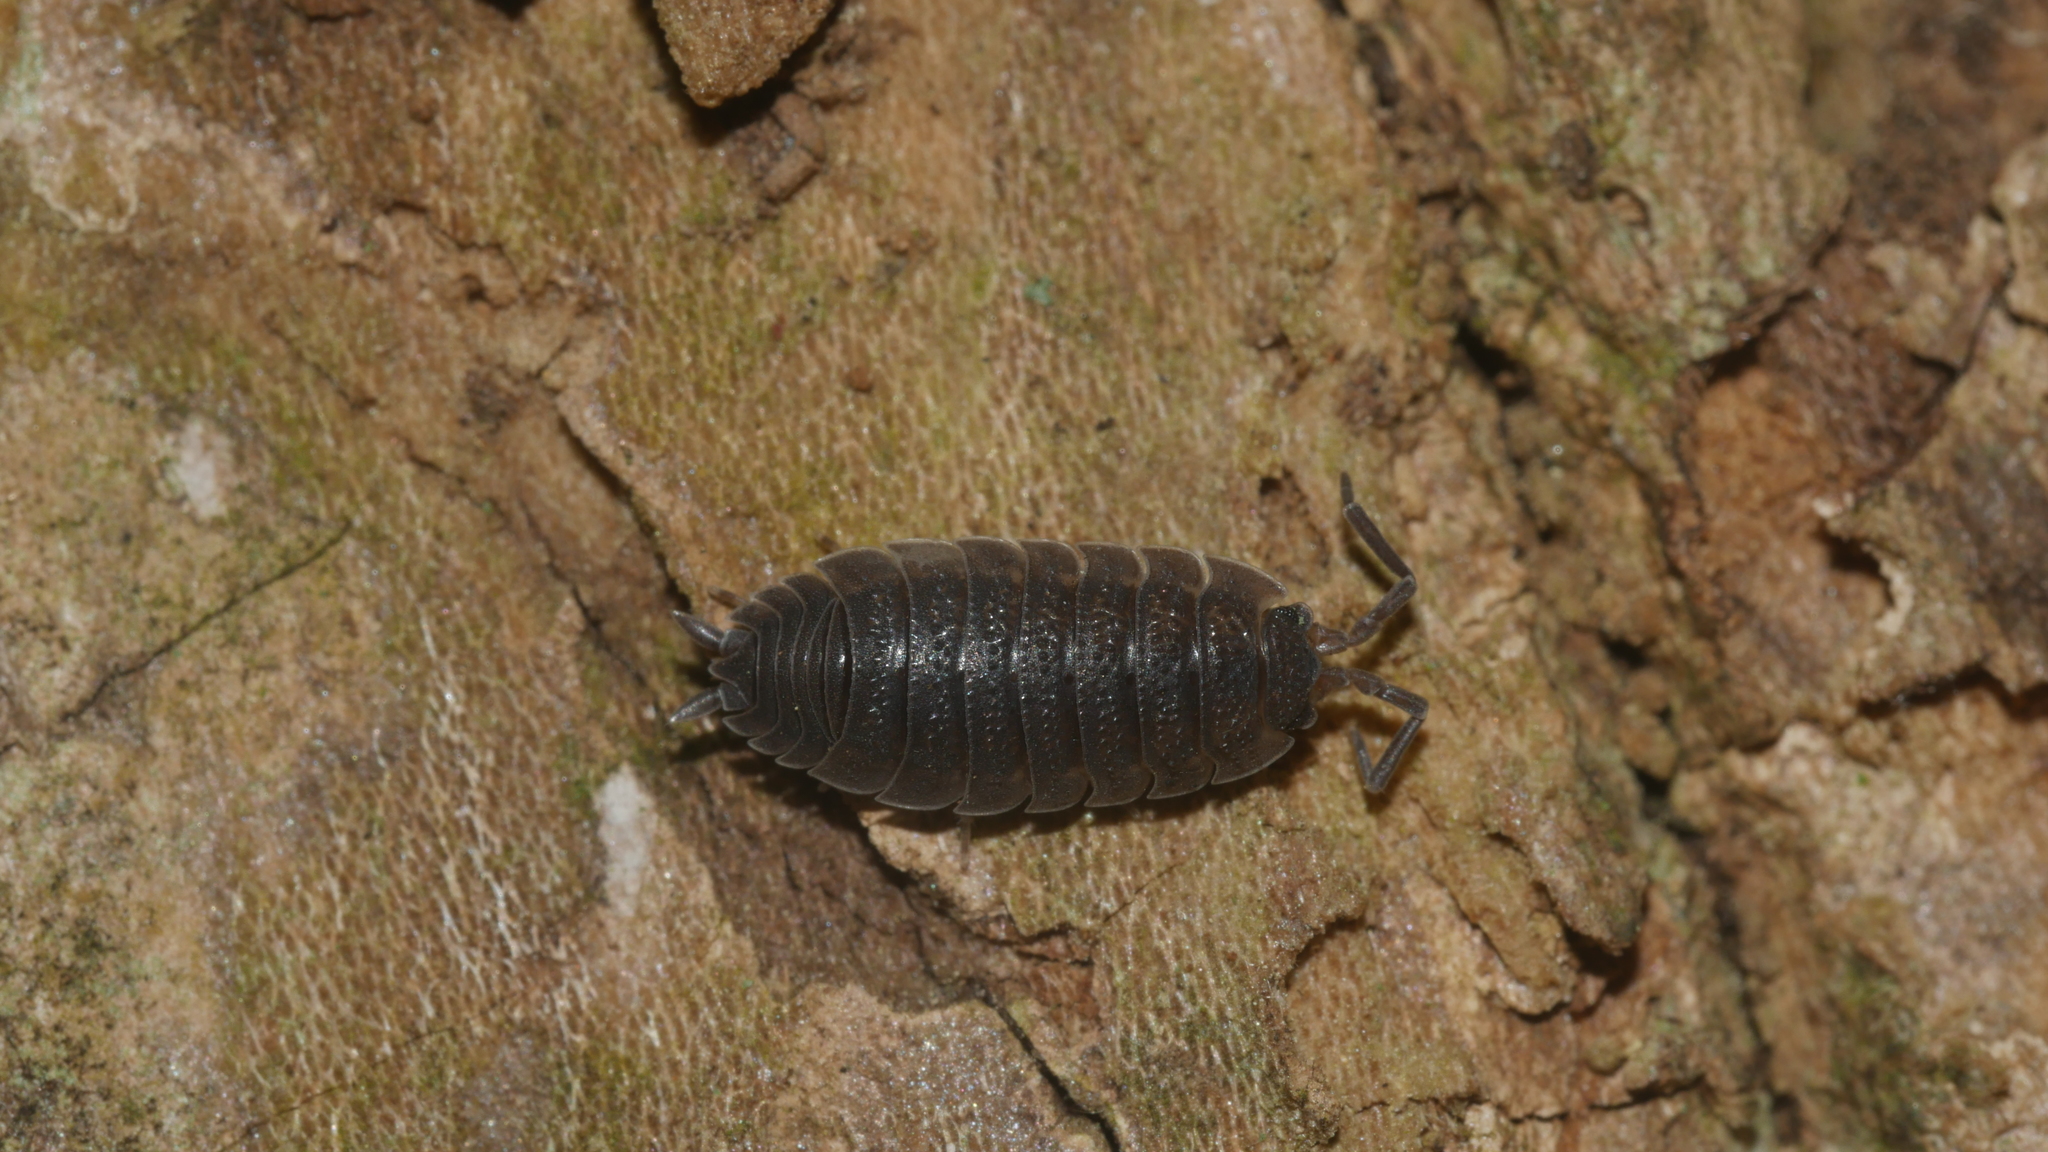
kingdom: Animalia
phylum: Arthropoda
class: Malacostraca
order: Isopoda
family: Porcellionidae
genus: Porcellio
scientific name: Porcellio scaber
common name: Common rough woodlouse
